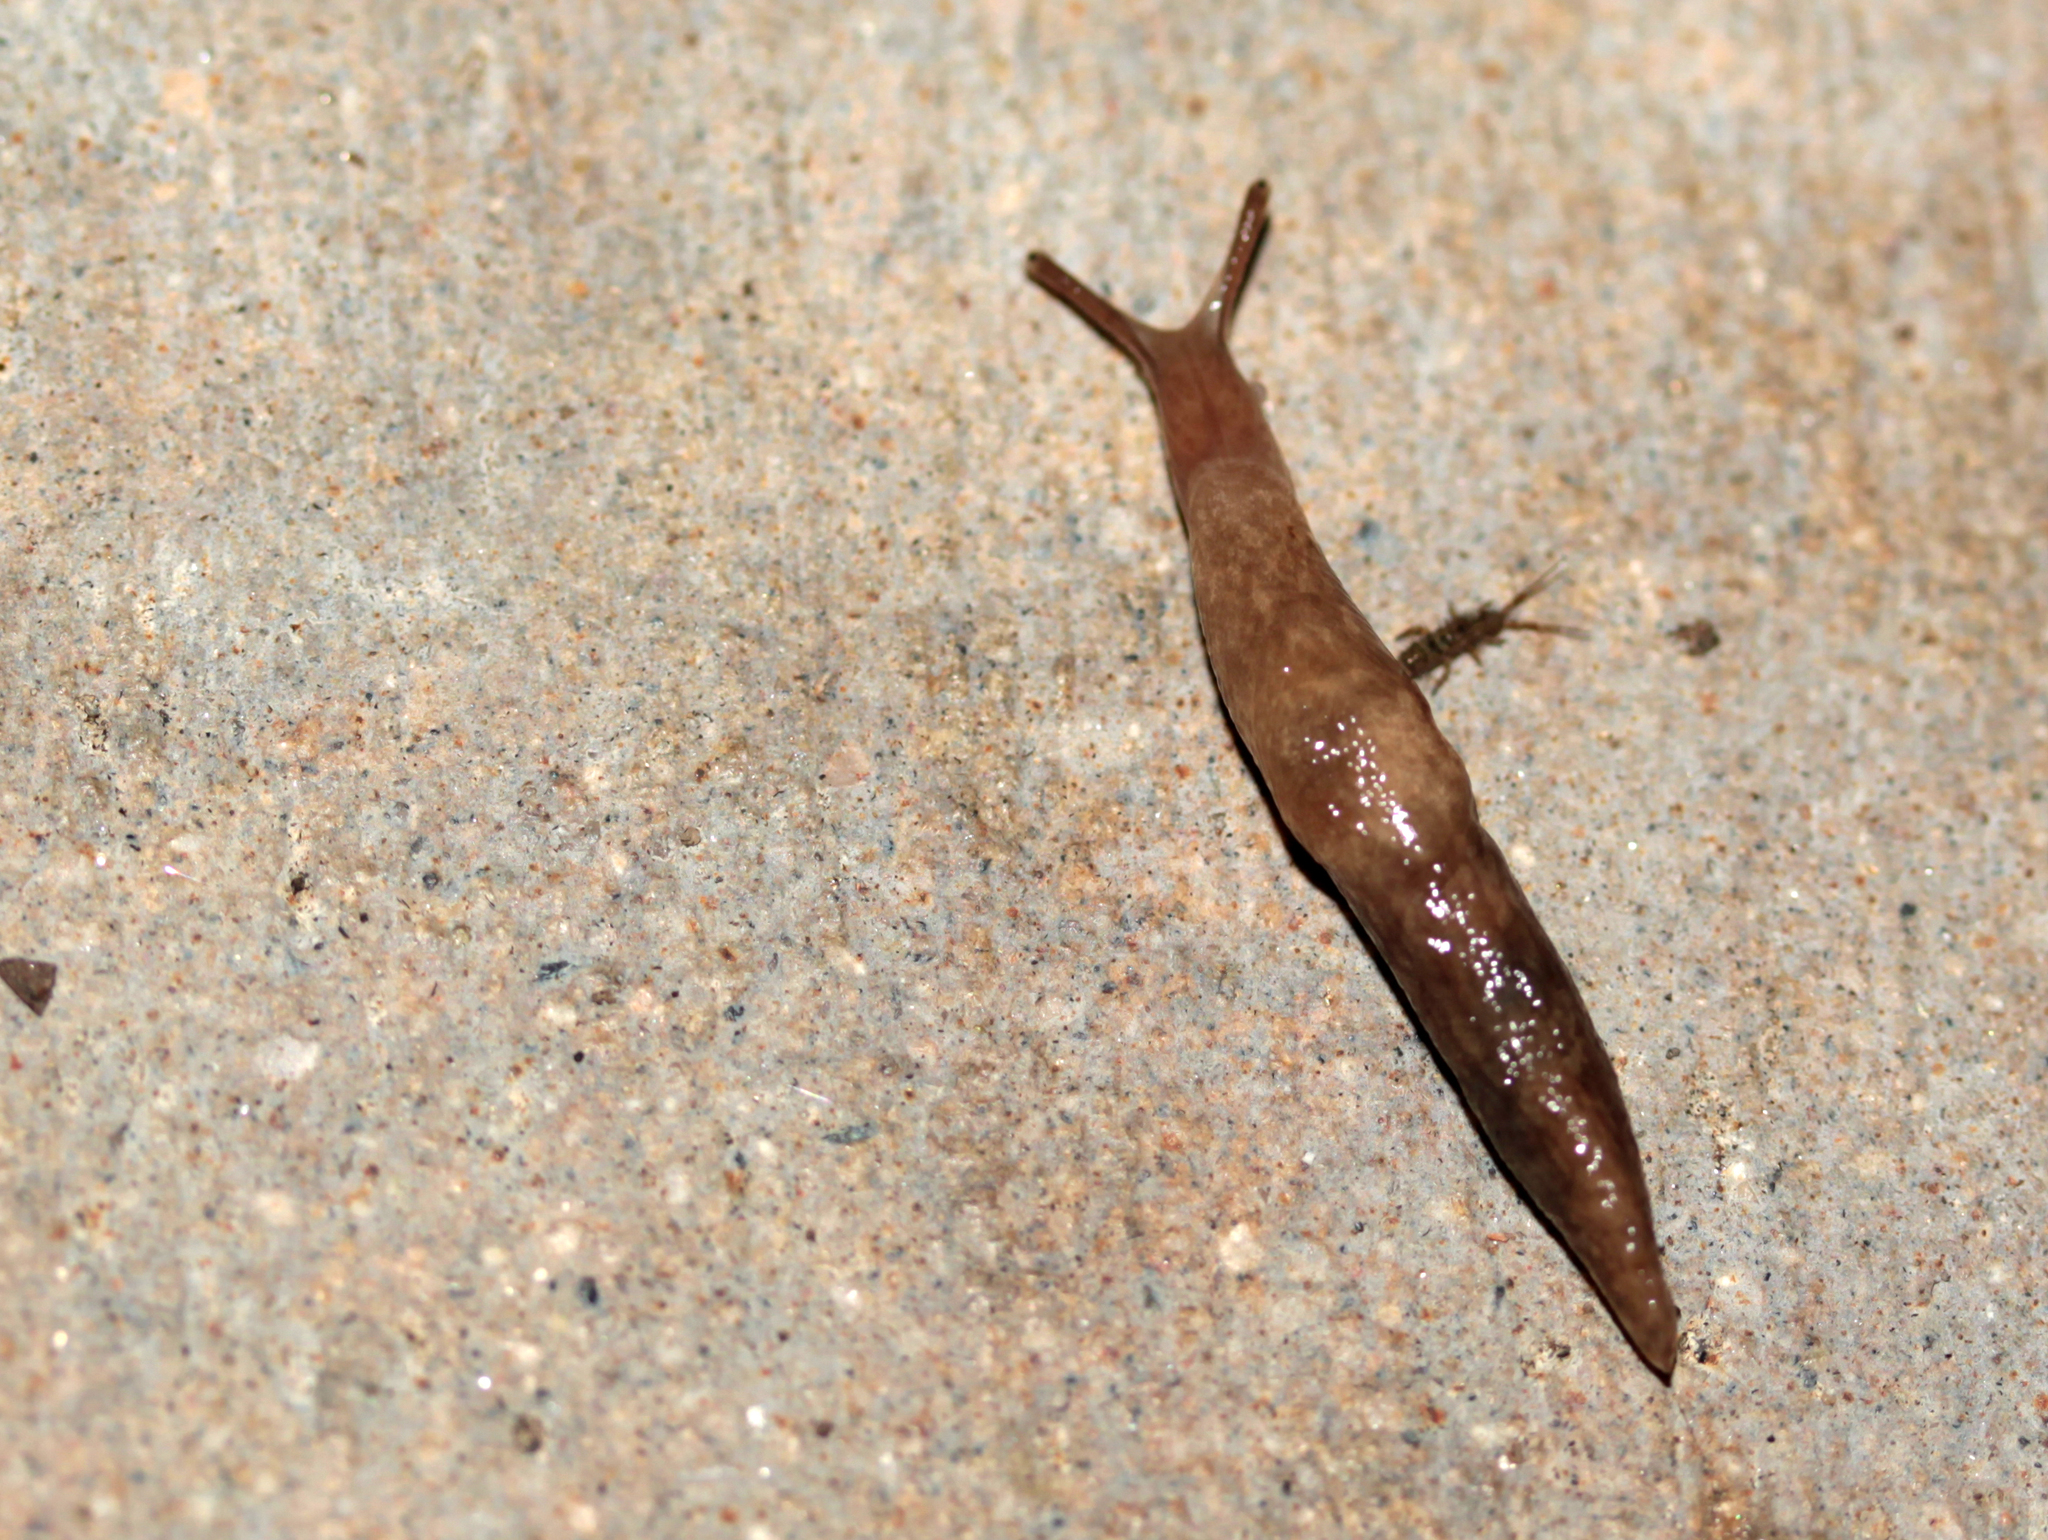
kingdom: Animalia
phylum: Mollusca
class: Gastropoda
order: Stylommatophora
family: Agriolimacidae
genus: Deroceras
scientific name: Deroceras reticulatum
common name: Gray field slug
